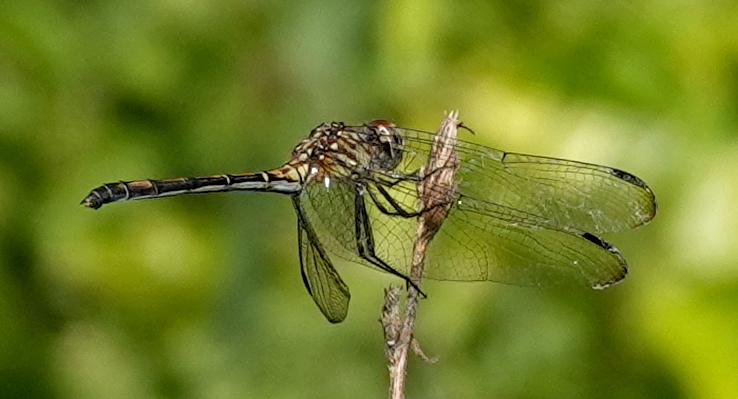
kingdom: Animalia
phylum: Arthropoda
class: Insecta
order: Odonata
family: Libellulidae
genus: Dythemis
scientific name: Dythemis sterilis
